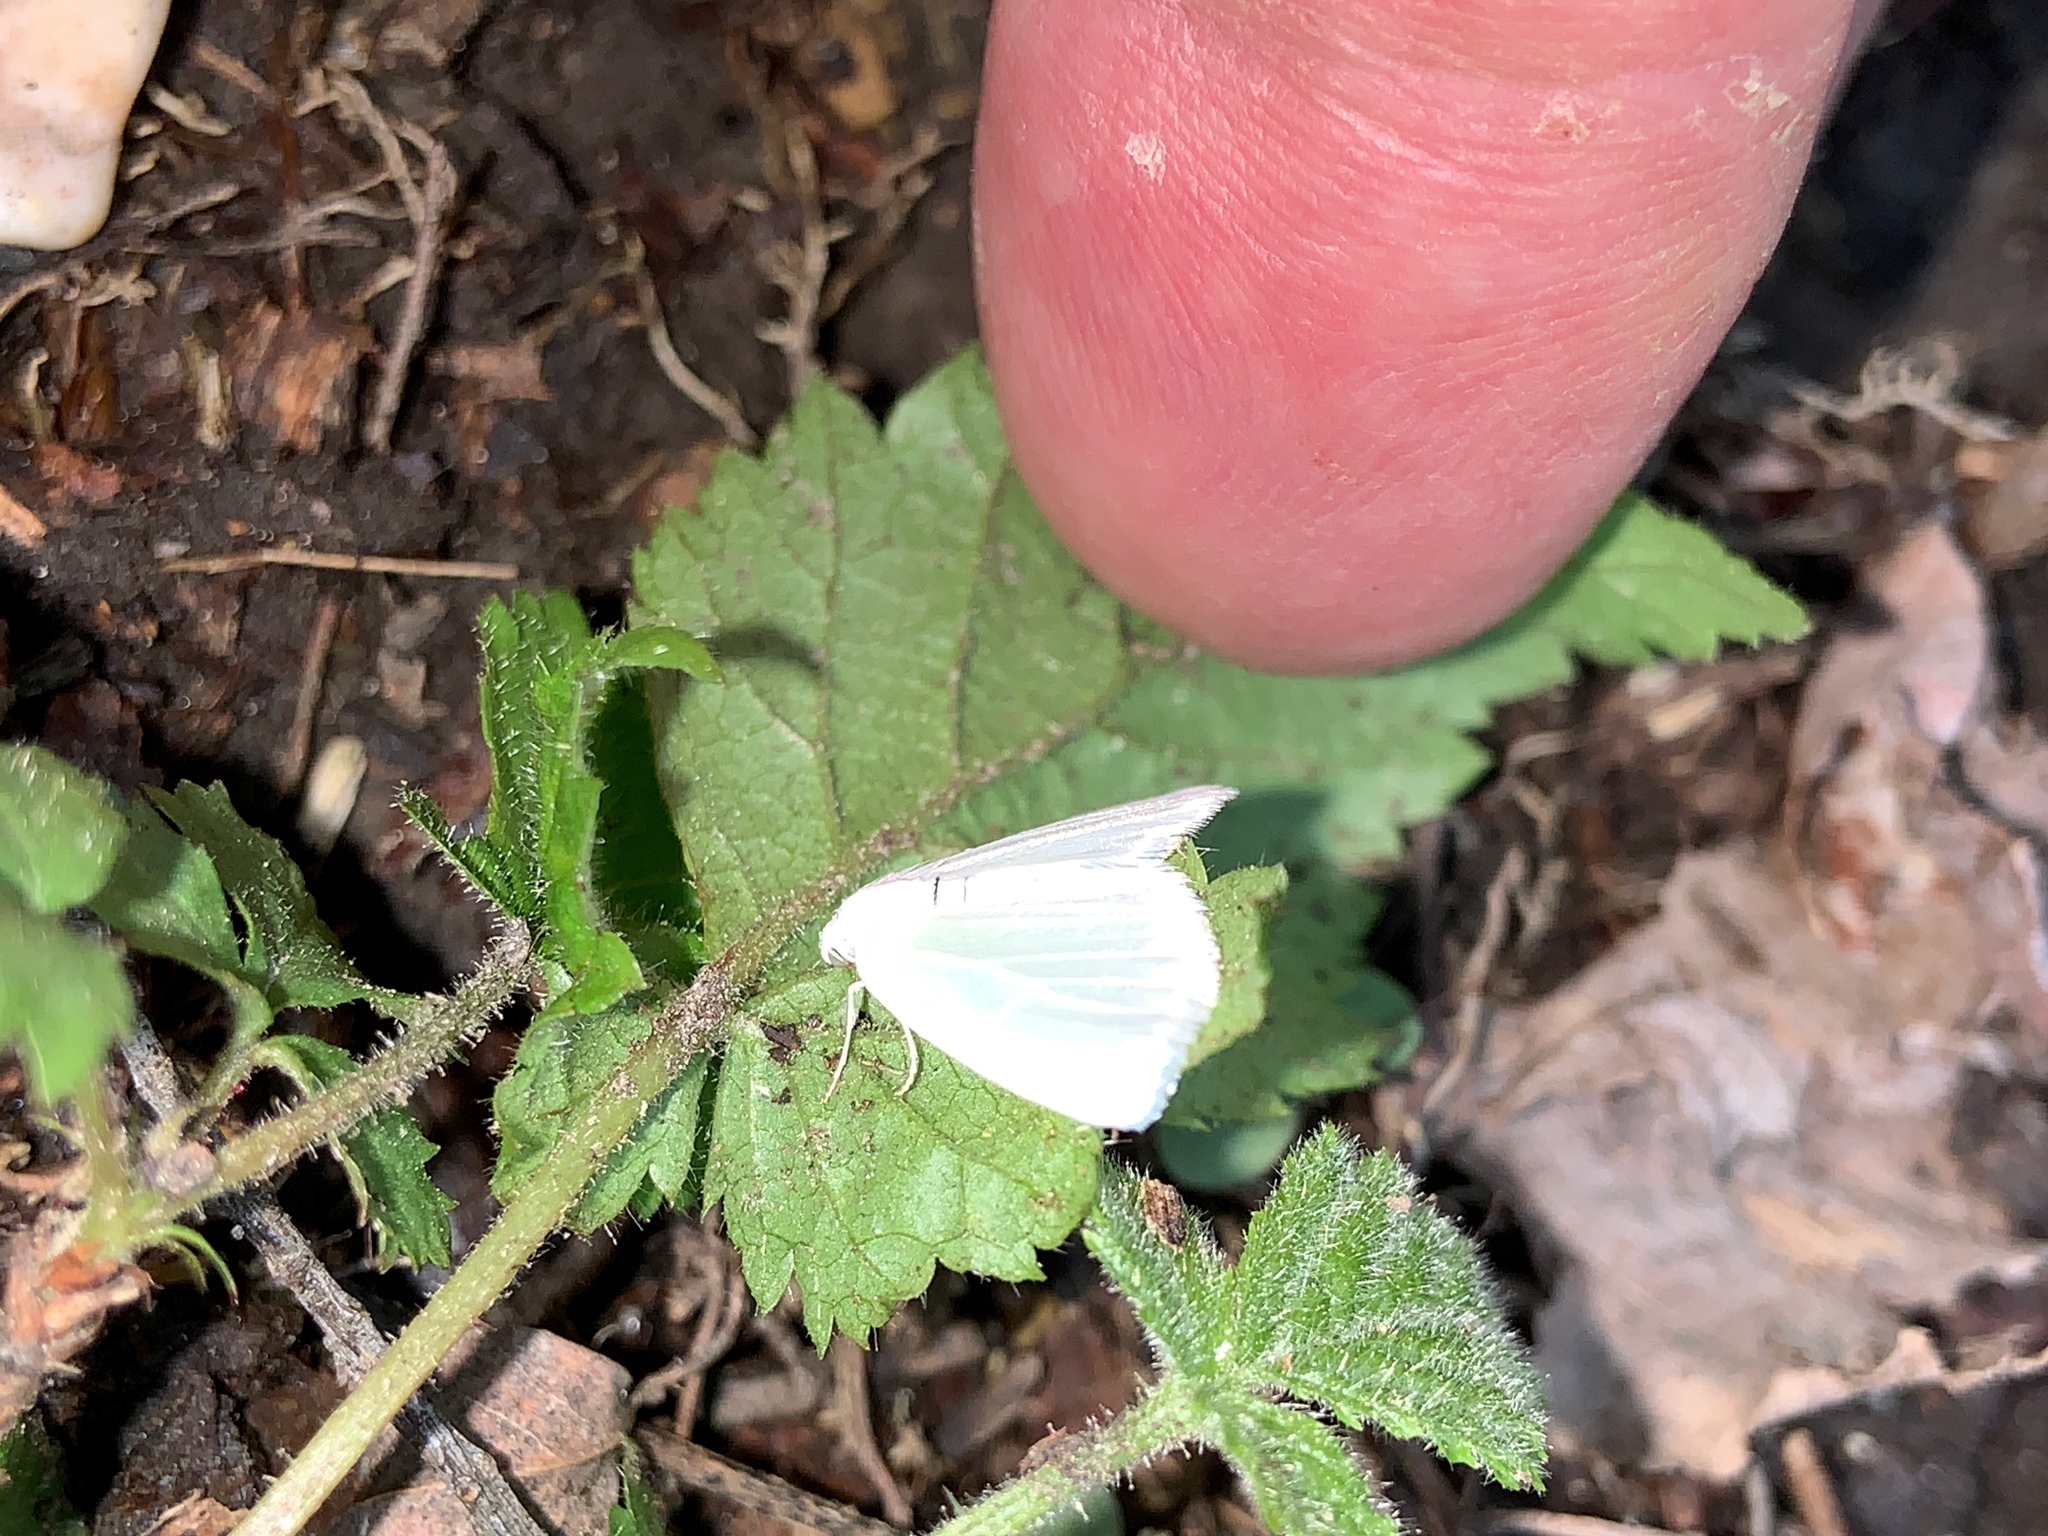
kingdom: Animalia
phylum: Arthropoda
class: Insecta
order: Lepidoptera
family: Geometridae
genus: Lomographa
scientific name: Lomographa vestaliata
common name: White spring moth
